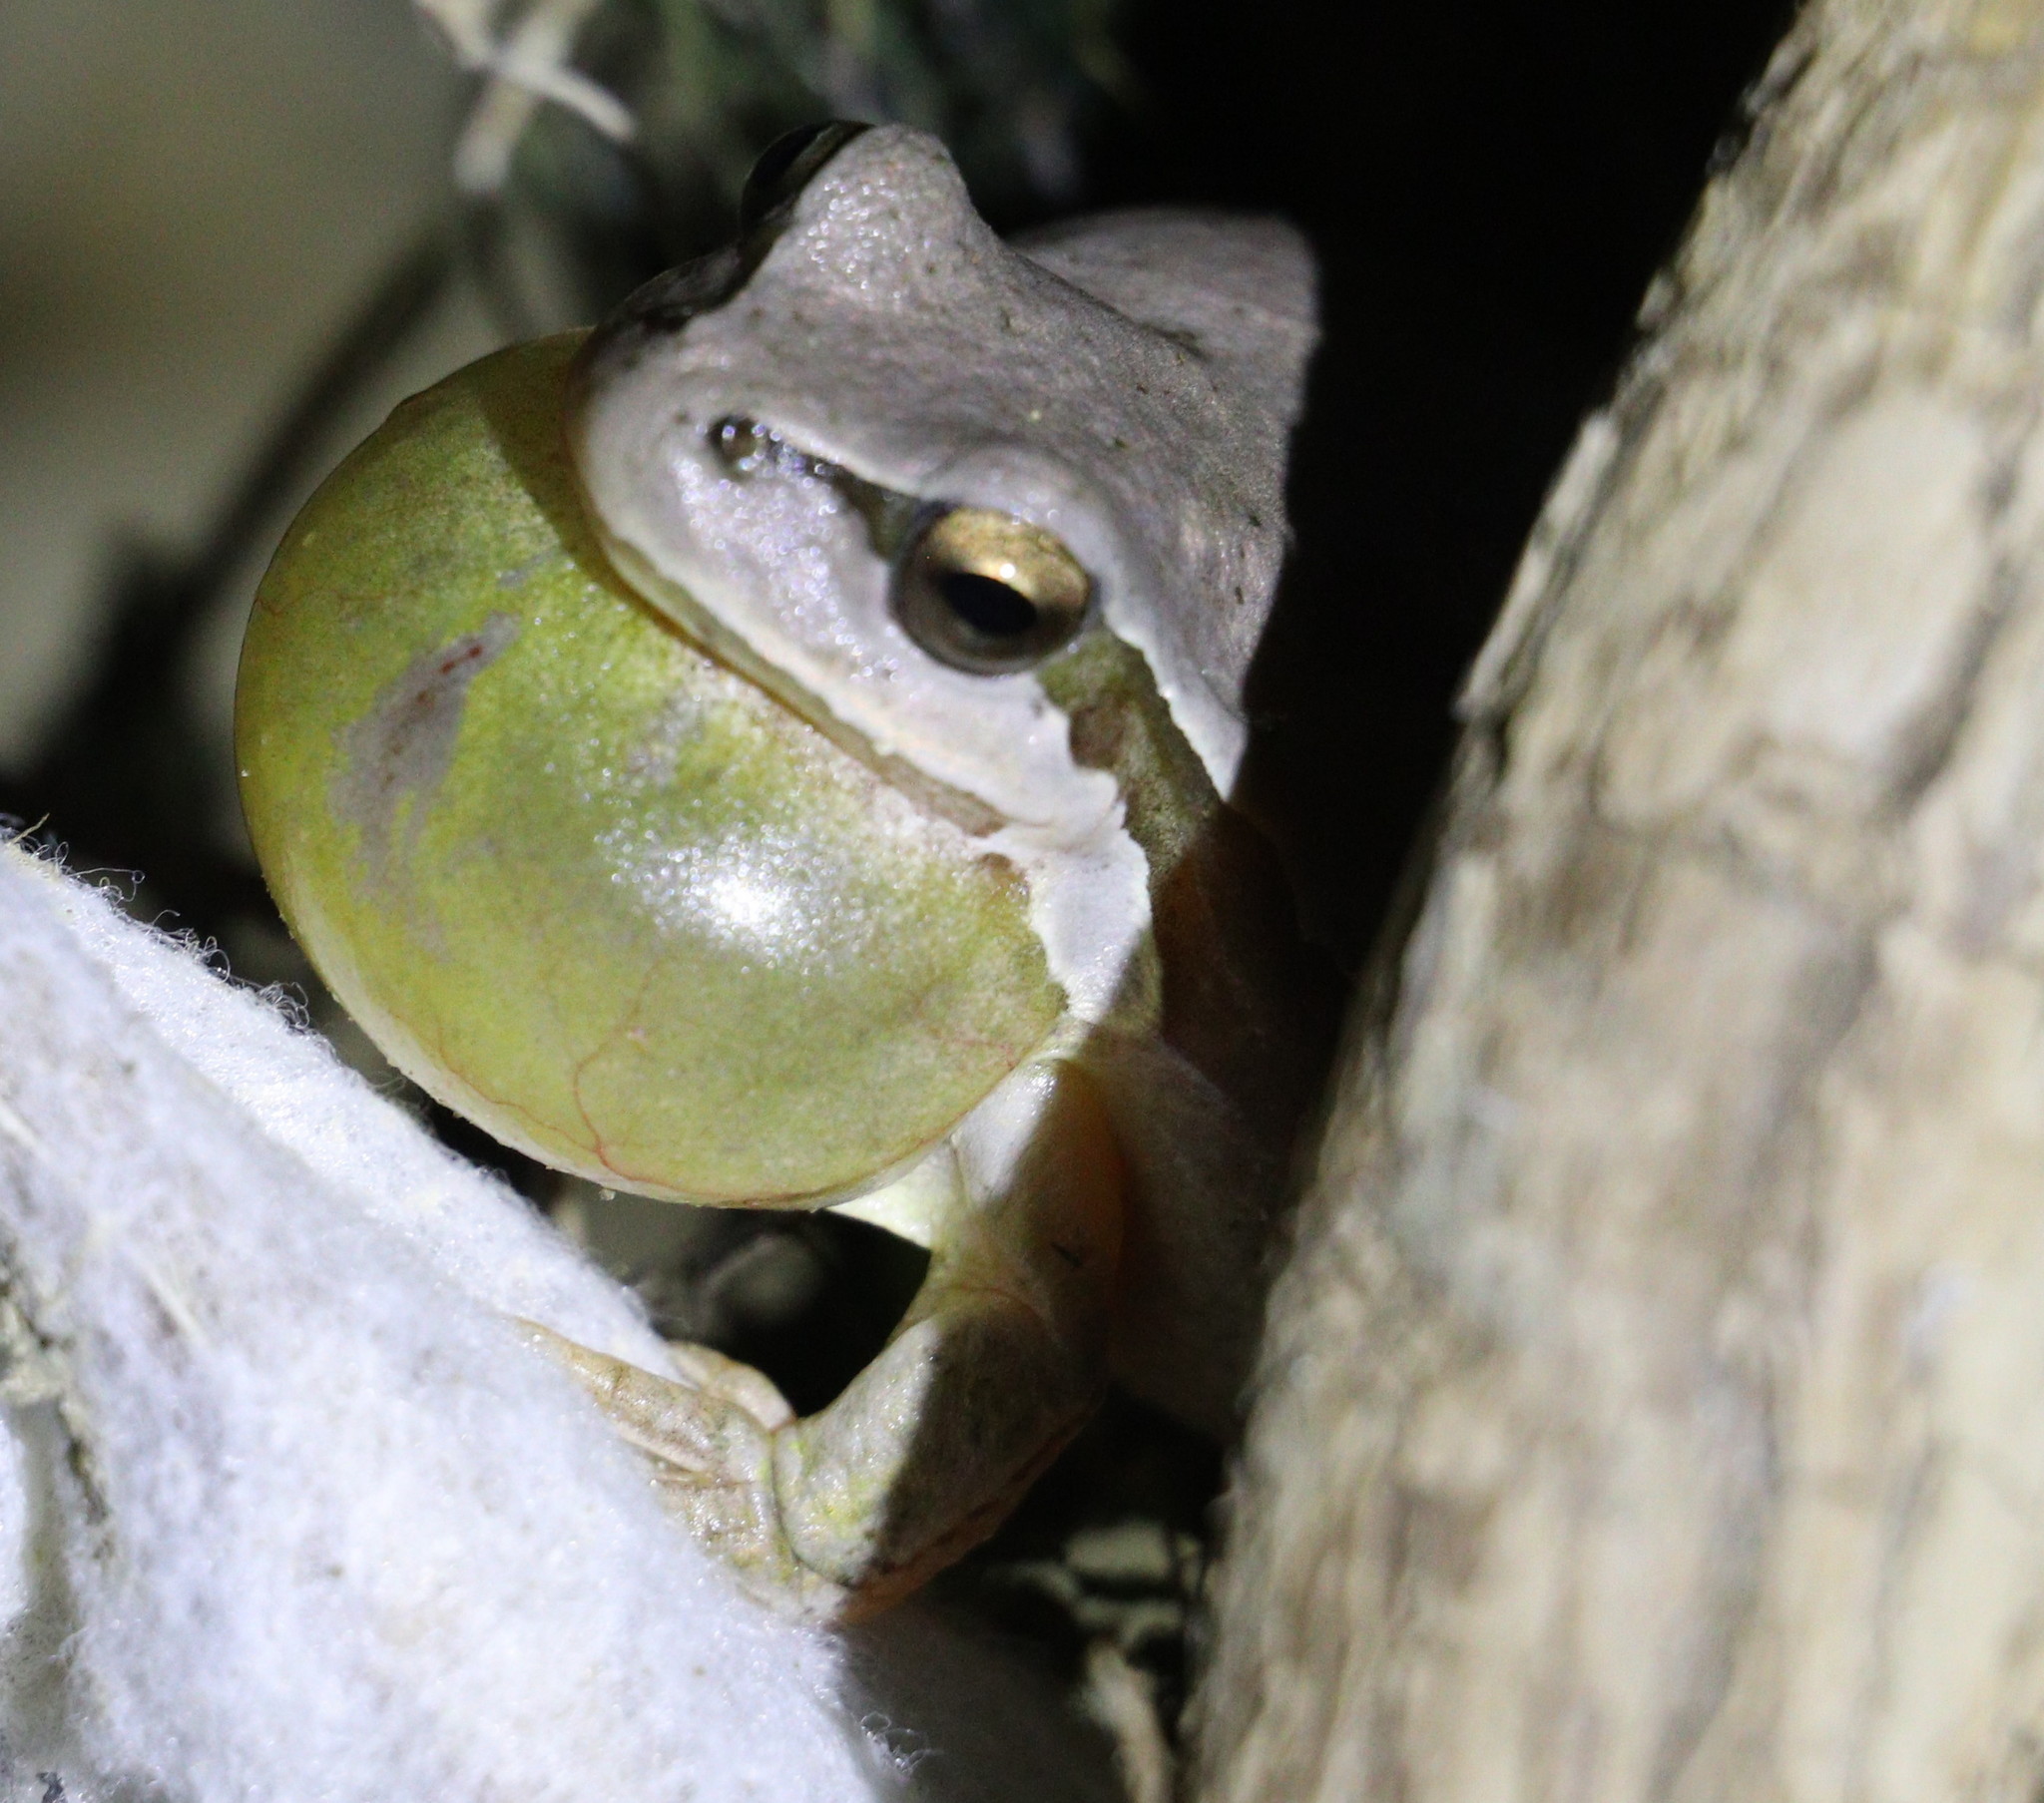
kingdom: Animalia
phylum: Chordata
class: Amphibia
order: Anura
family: Hylidae
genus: Hyla
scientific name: Hyla savignyi
